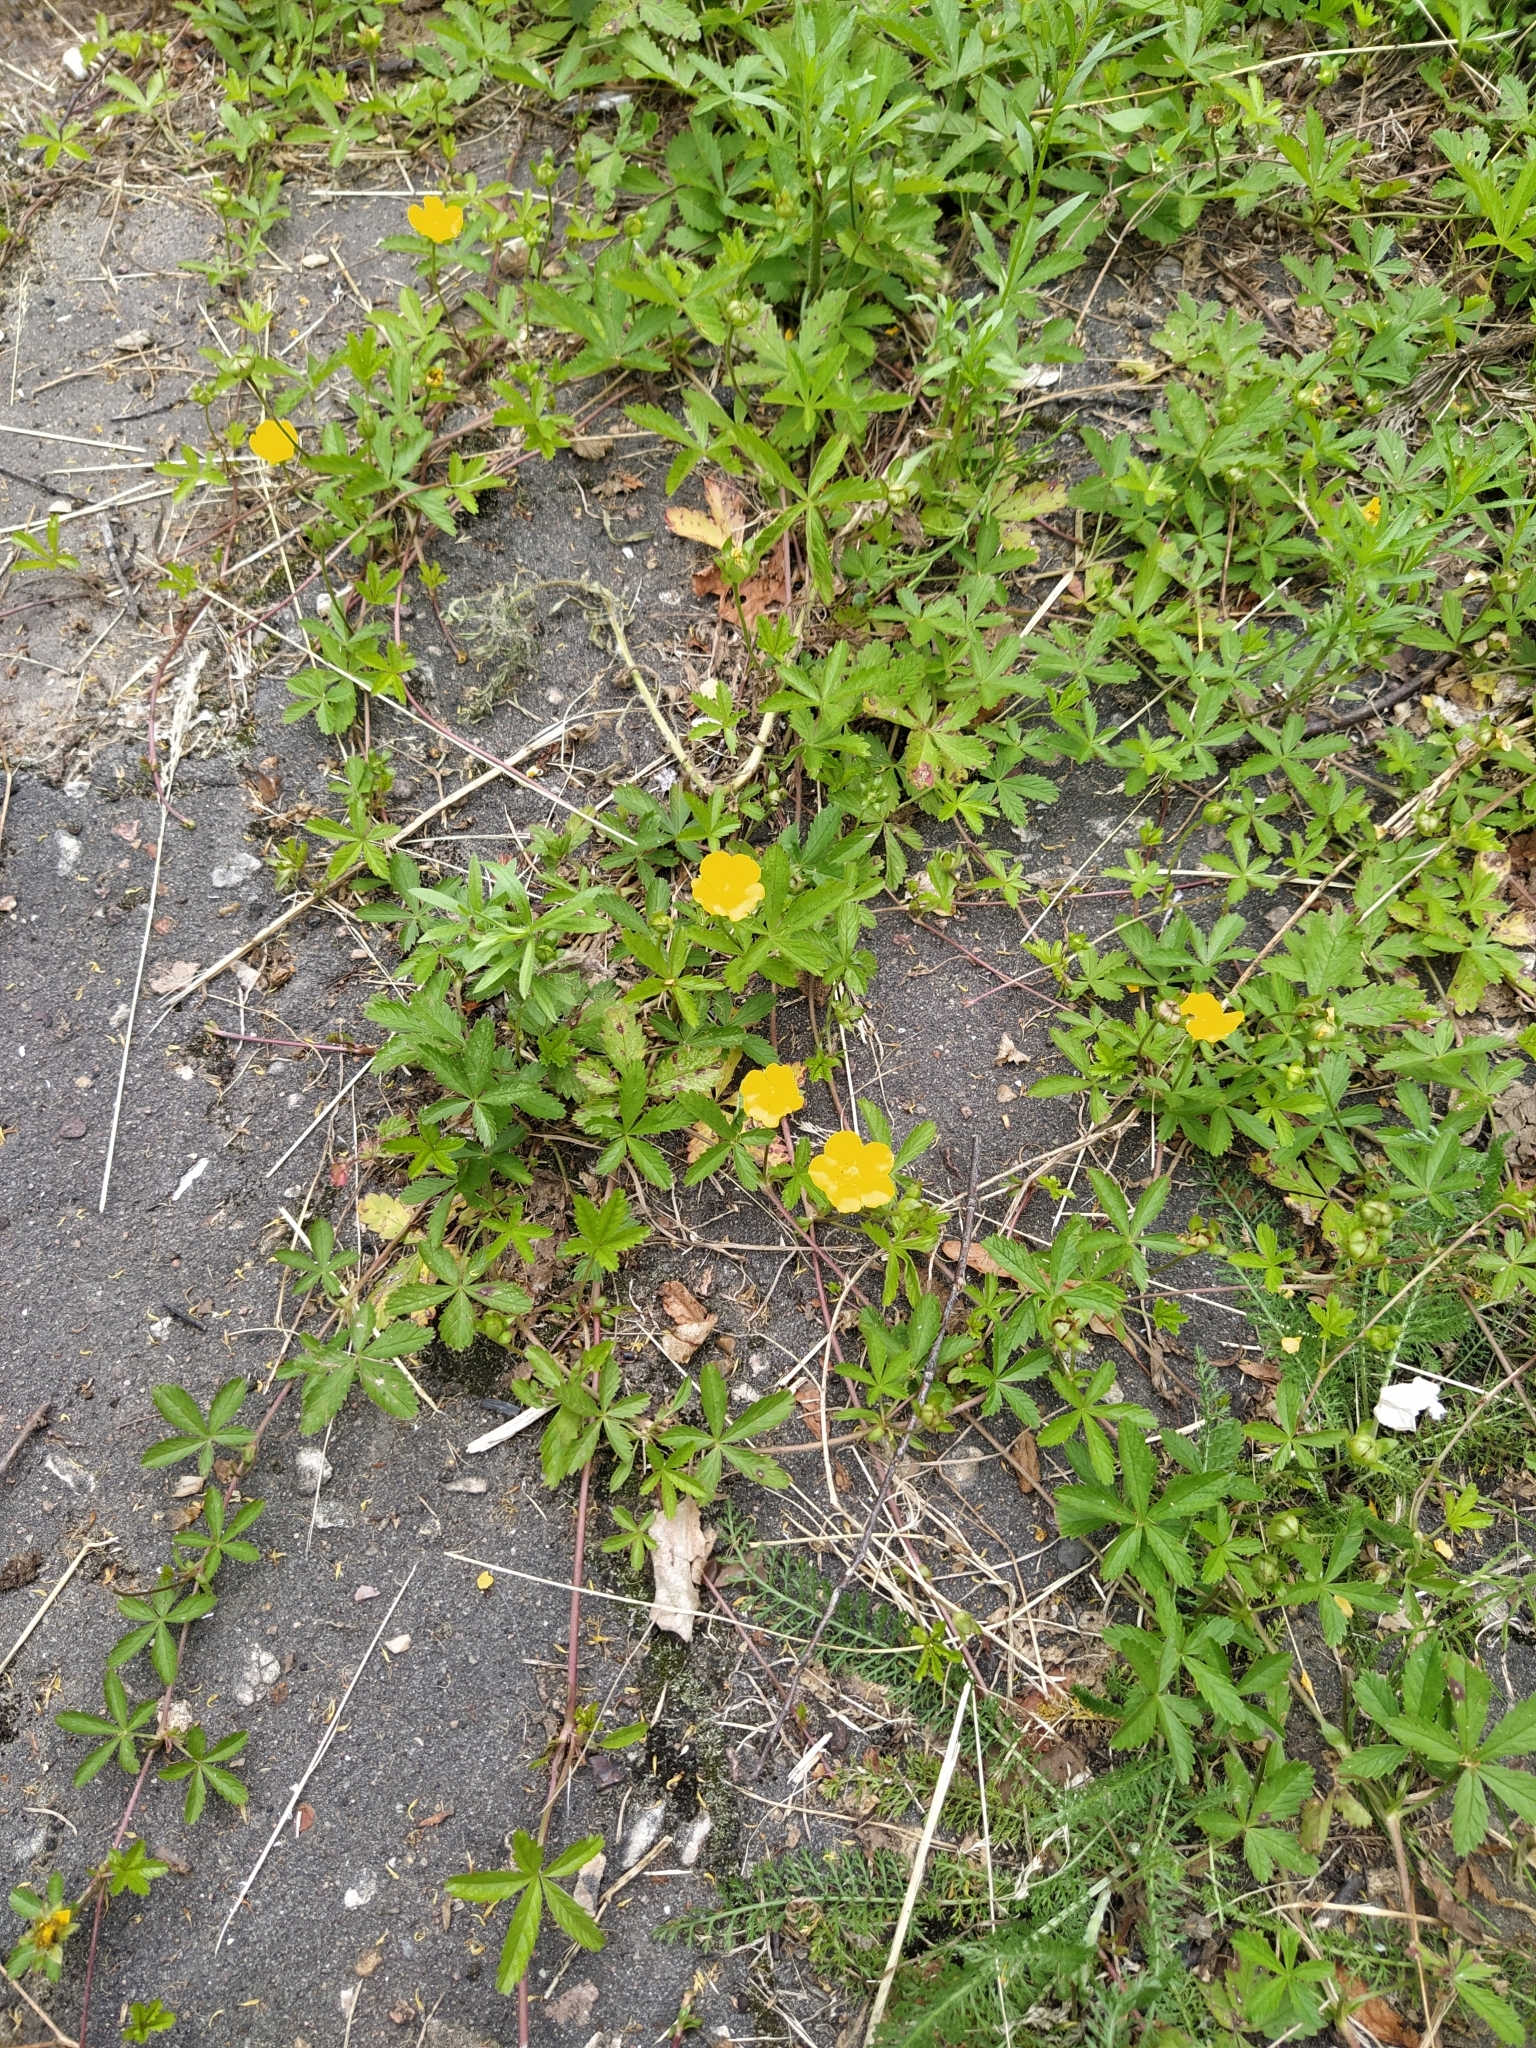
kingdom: Plantae
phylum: Tracheophyta
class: Magnoliopsida
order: Rosales
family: Rosaceae
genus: Potentilla
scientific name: Potentilla reptans
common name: Creeping cinquefoil
